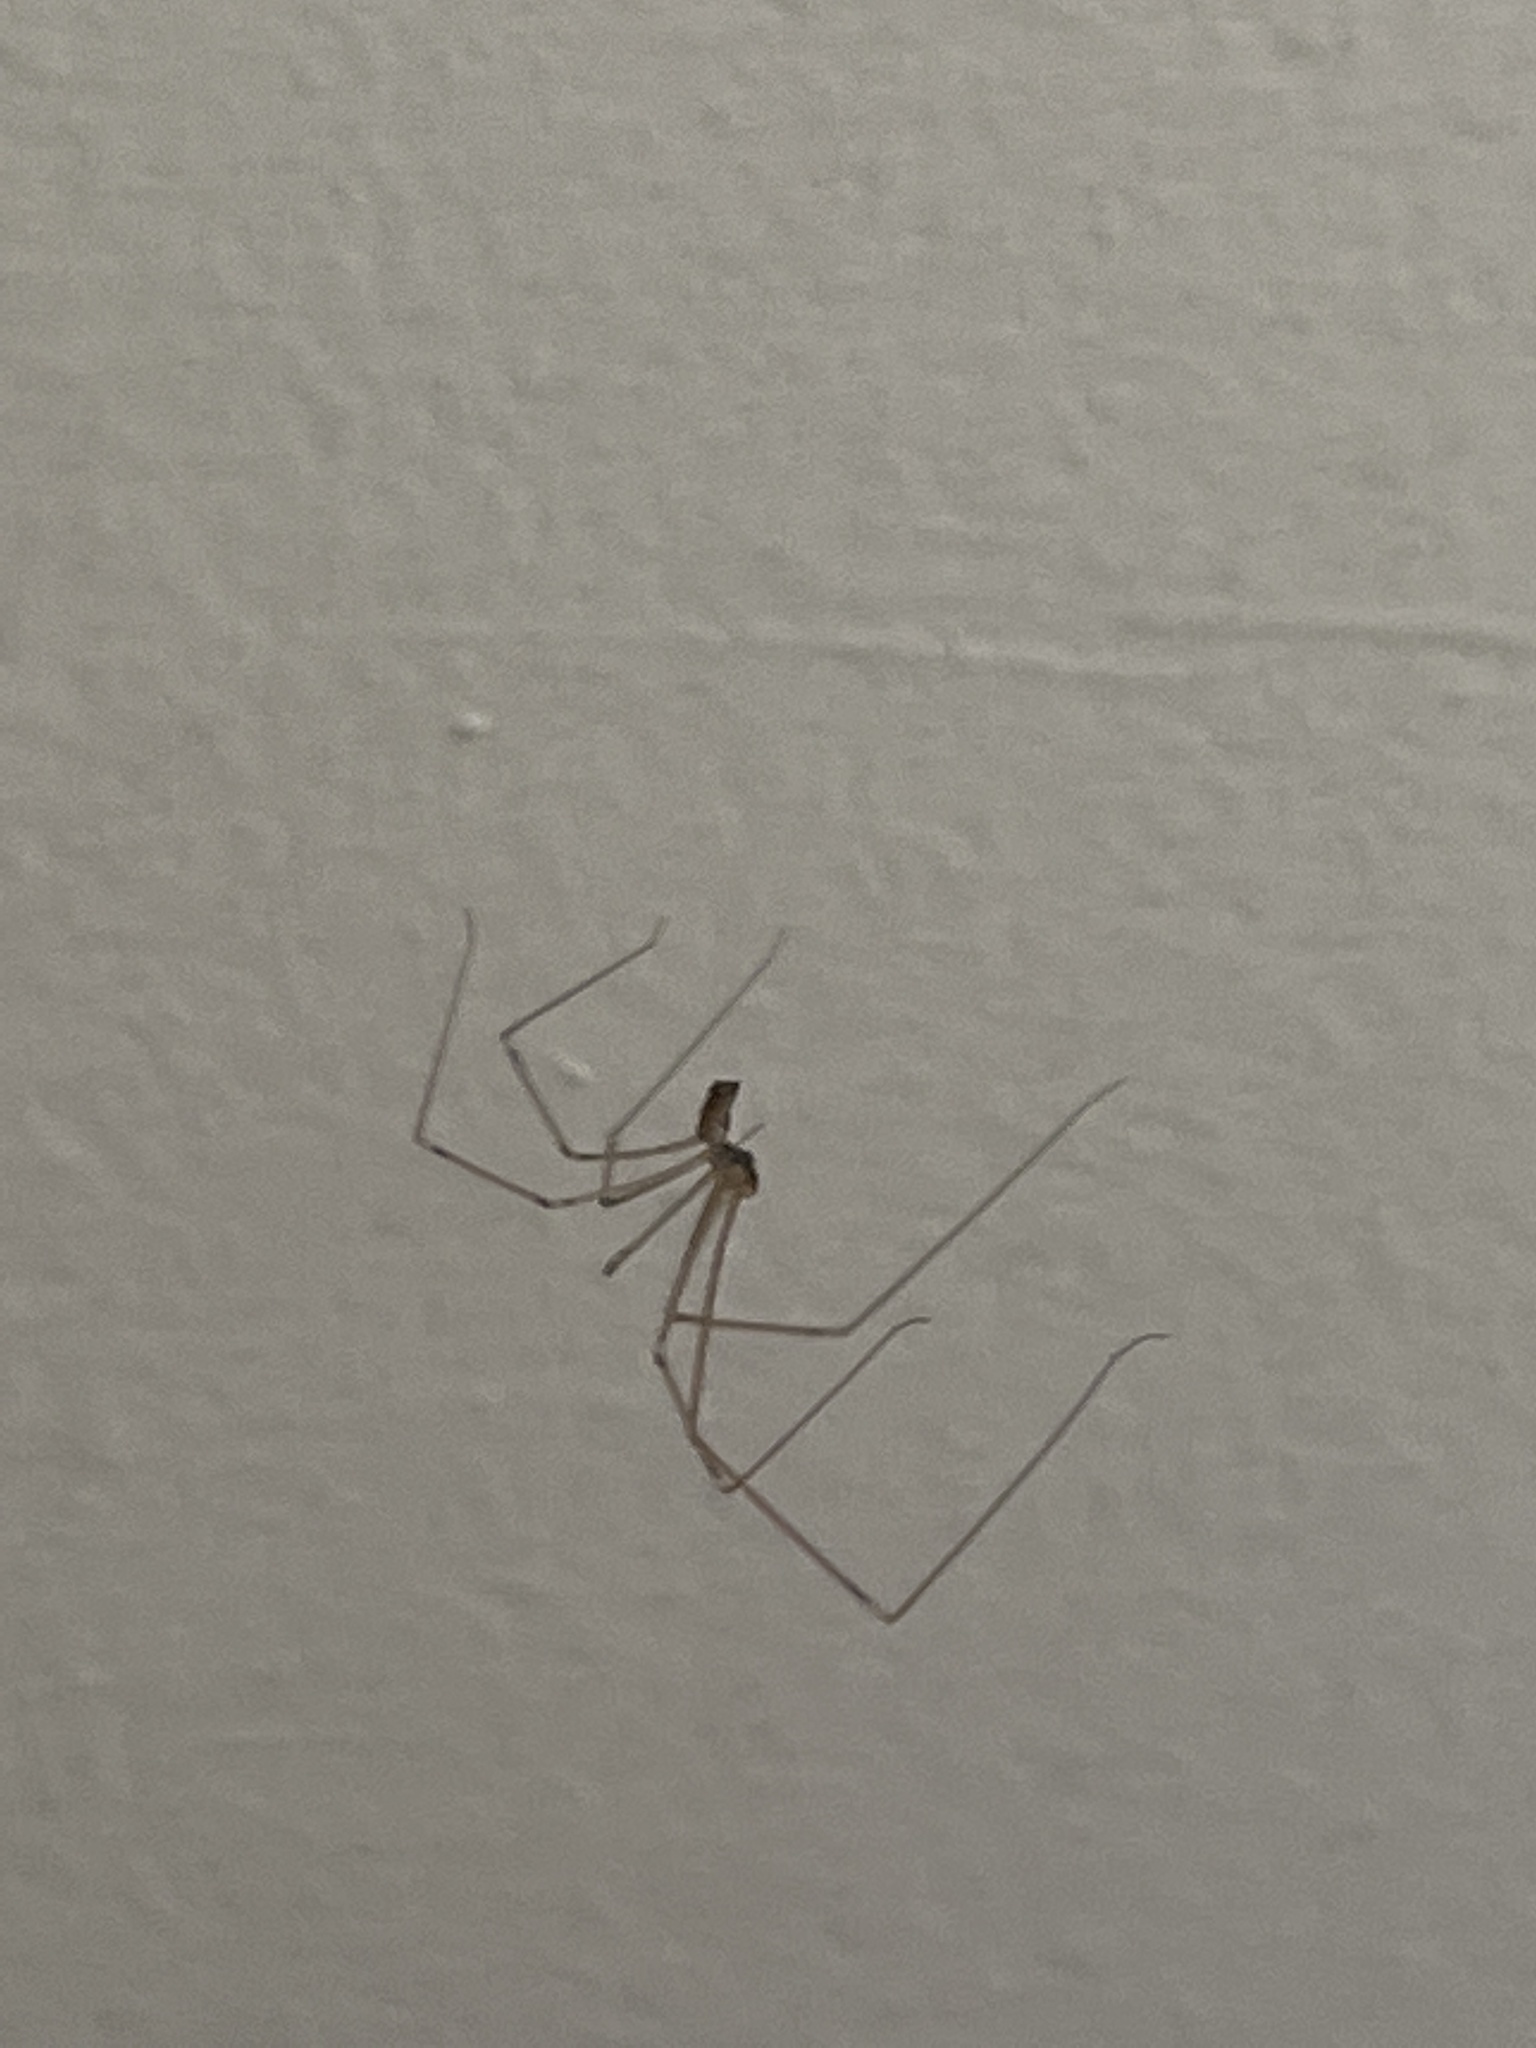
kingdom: Animalia
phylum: Arthropoda
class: Arachnida
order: Araneae
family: Pholcidae
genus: Holocnemus
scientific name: Holocnemus pluchei
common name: Marbled cellar spider
